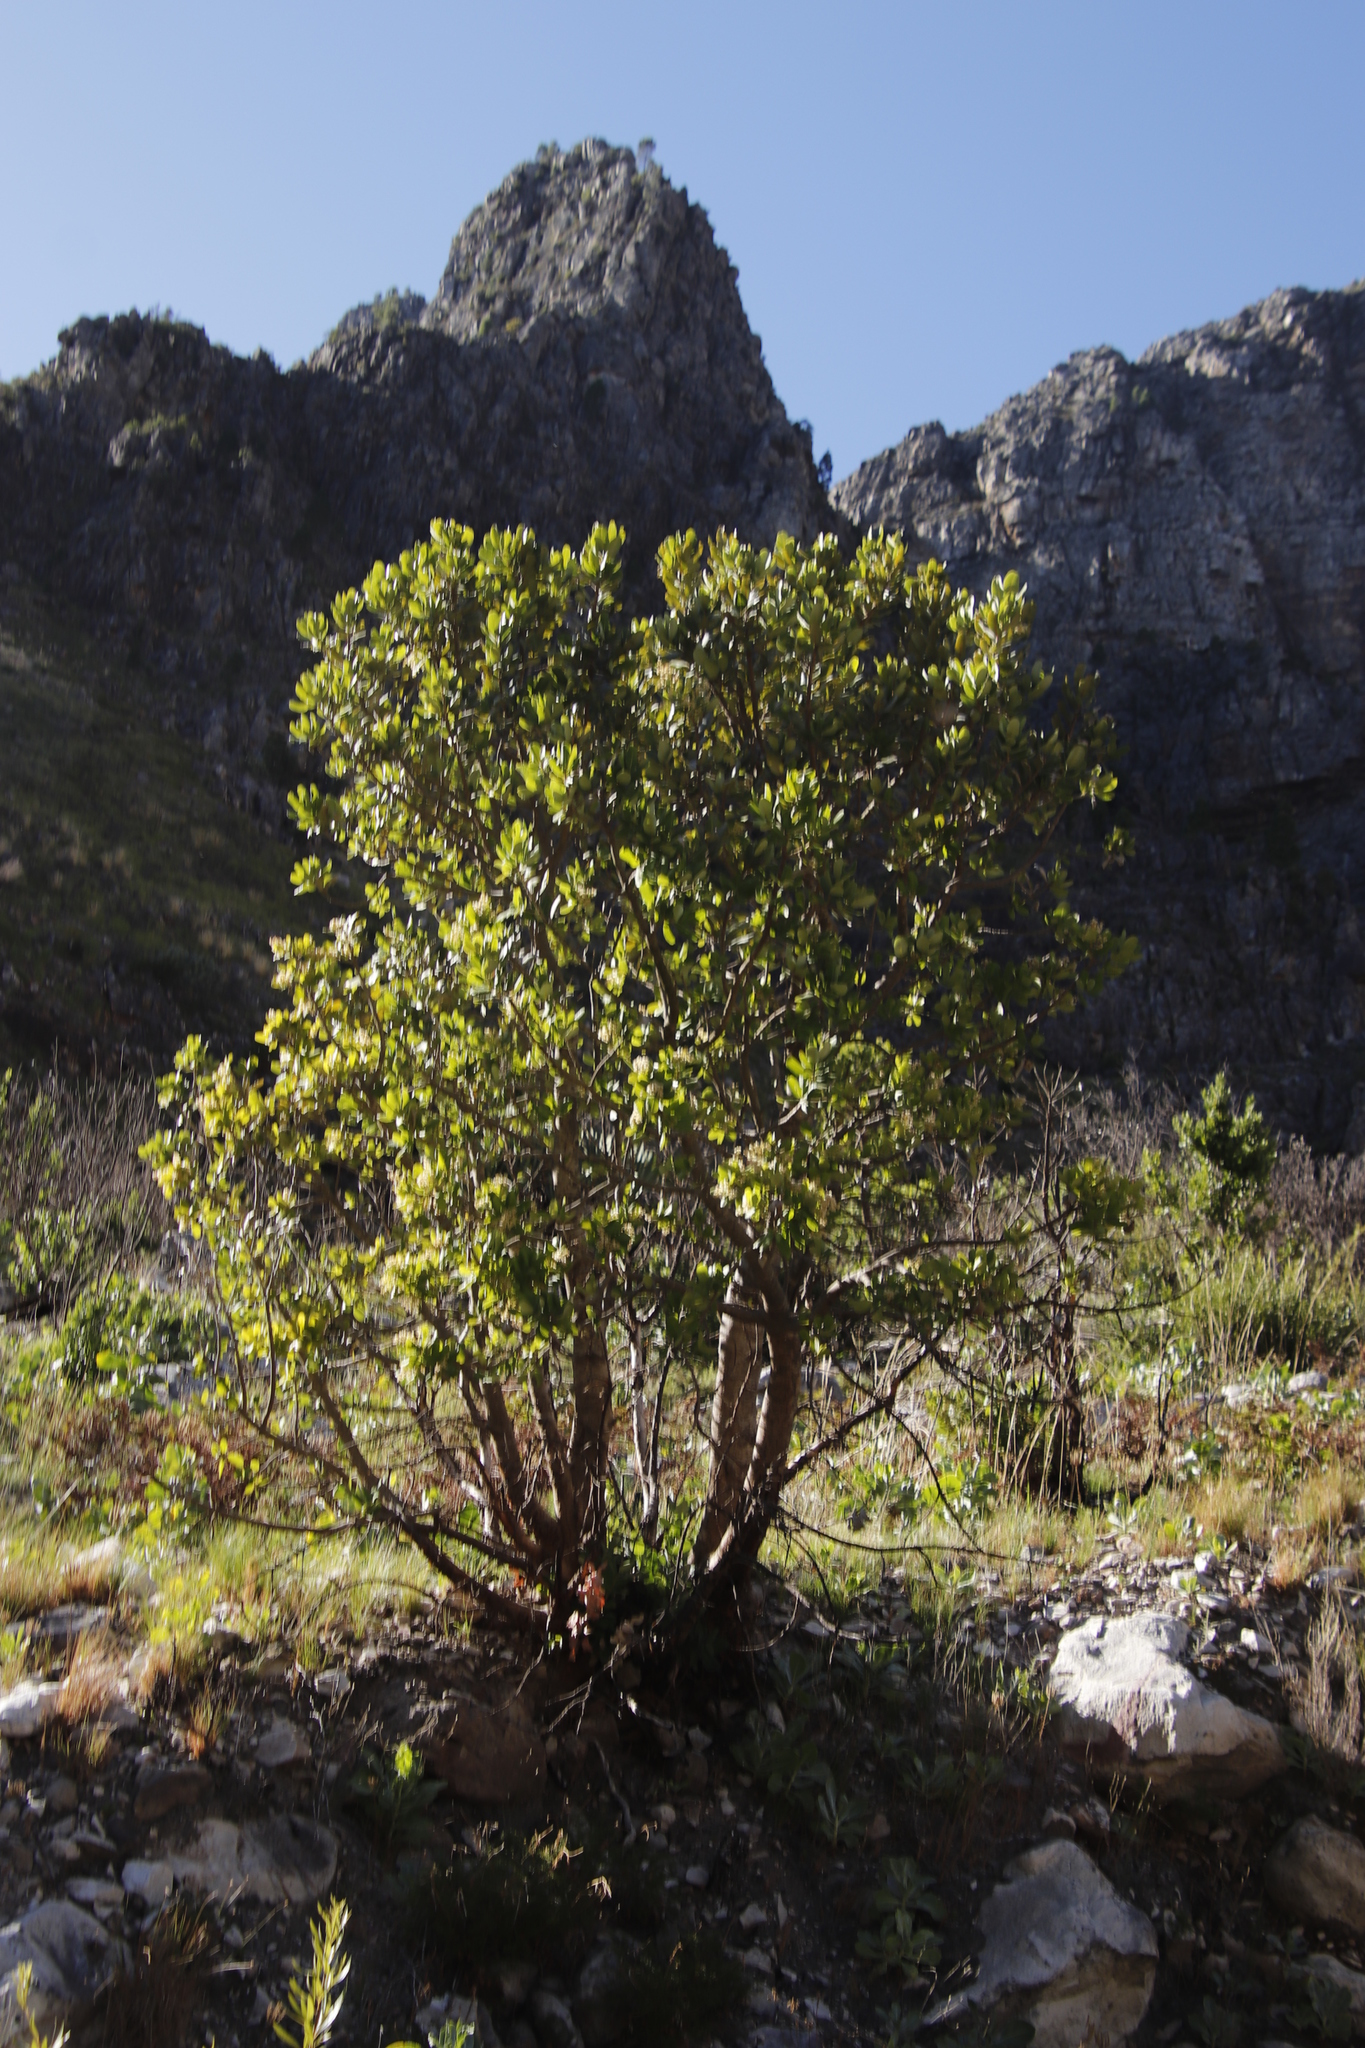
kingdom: Plantae
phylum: Tracheophyta
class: Magnoliopsida
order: Sapindales
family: Anacardiaceae
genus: Heeria
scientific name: Heeria argentea
